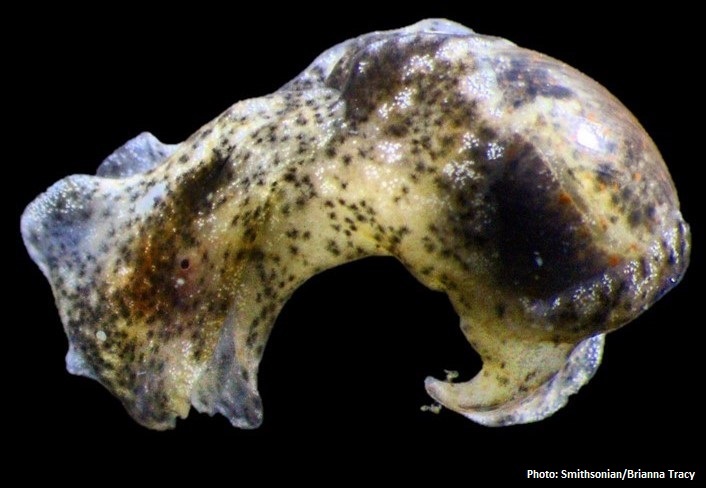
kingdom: Animalia
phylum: Mollusca
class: Gastropoda
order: Cephalaspidea
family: Haminoeidae
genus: Haloa
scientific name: Haloa japonica
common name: Japanese bubble snail
